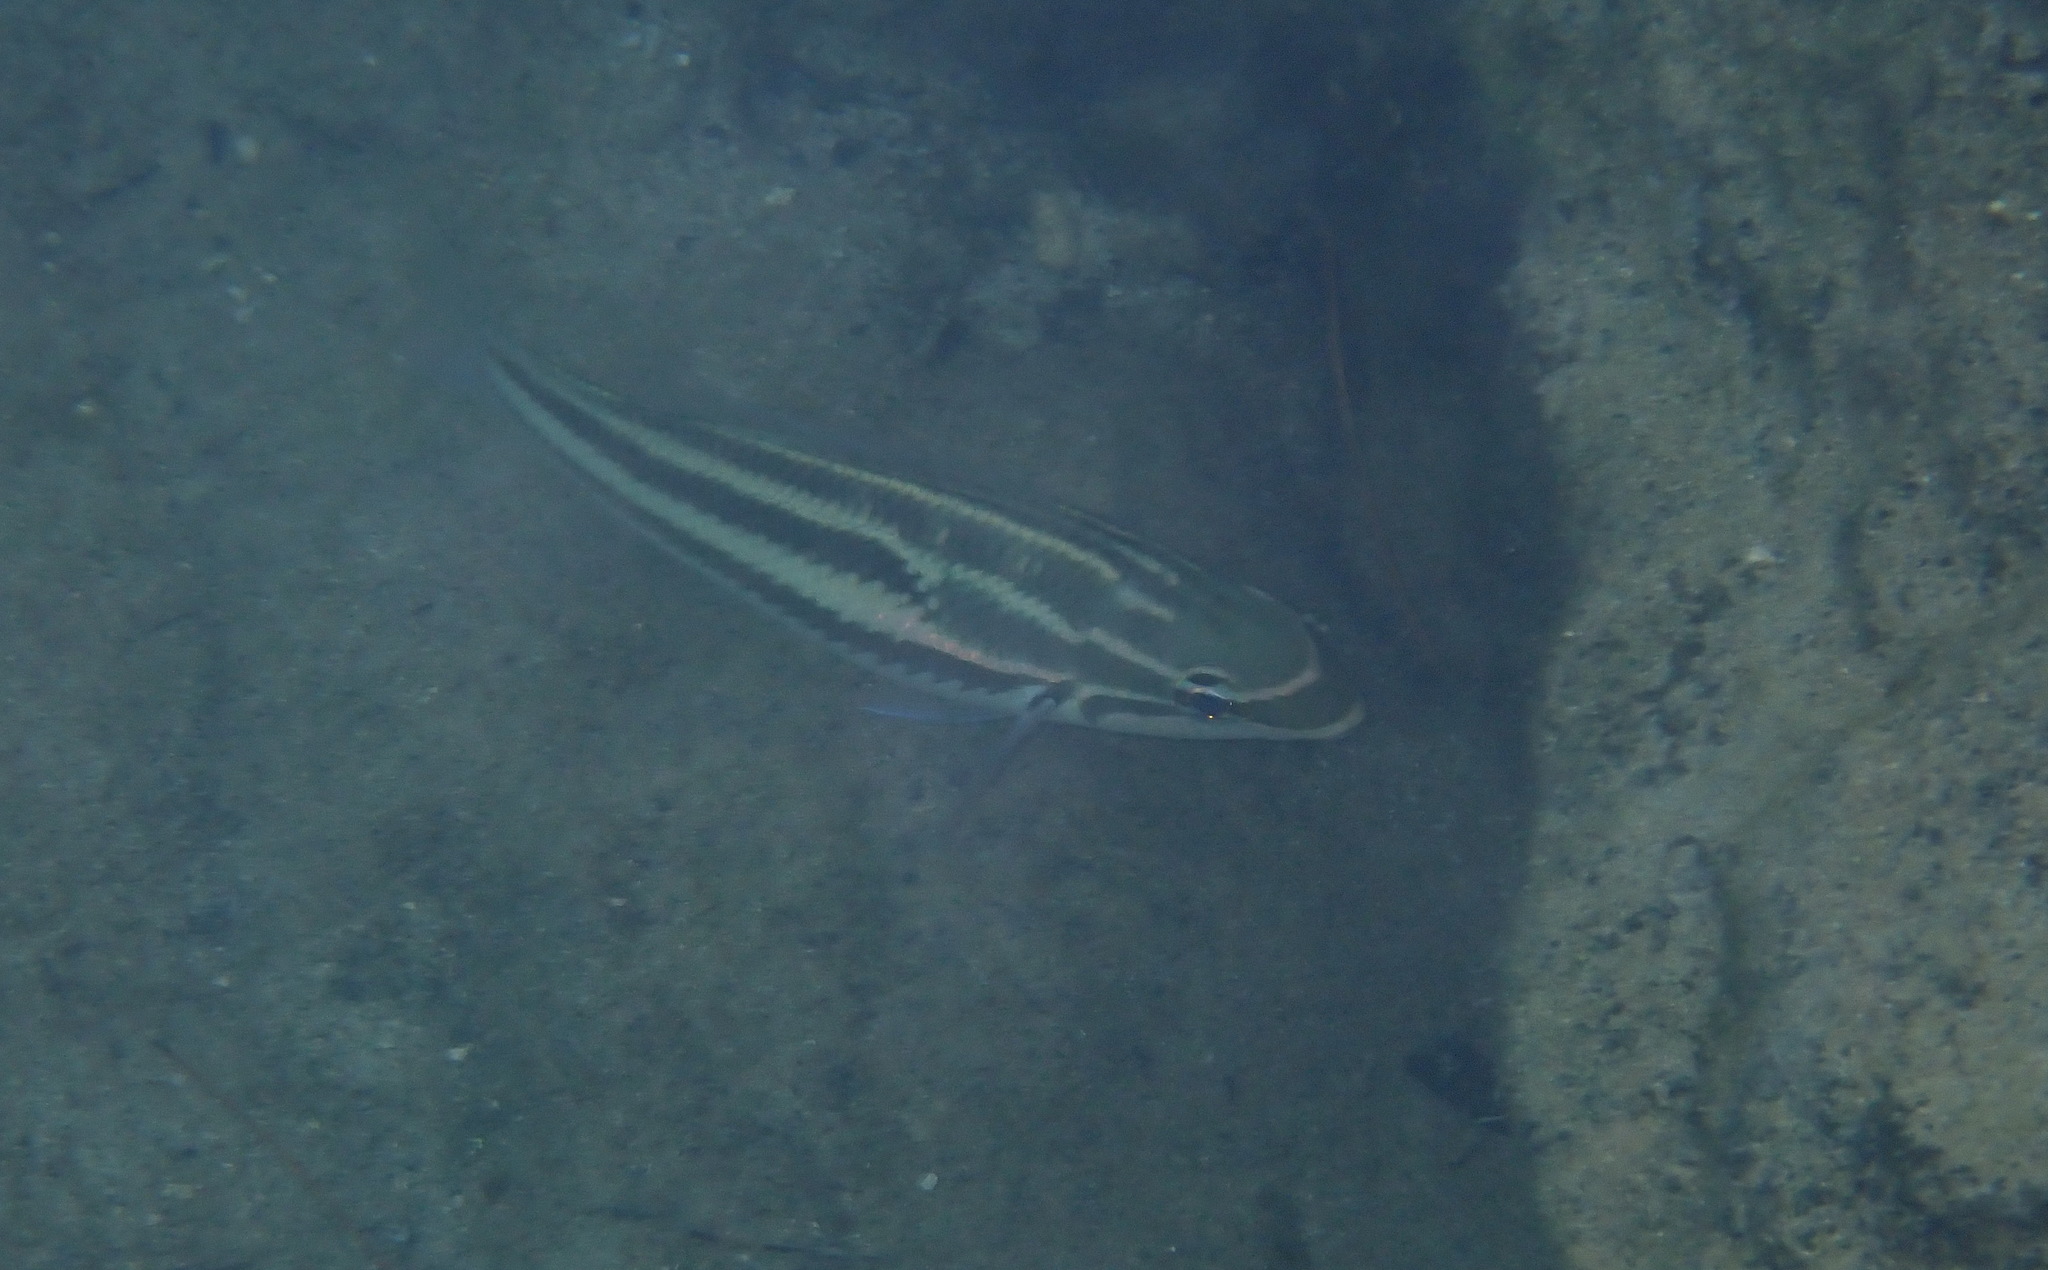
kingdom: Animalia
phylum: Chordata
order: Perciformes
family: Nemipteridae
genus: Pentapodus
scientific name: Pentapodus trivittatus
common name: Three-striped whiptail
